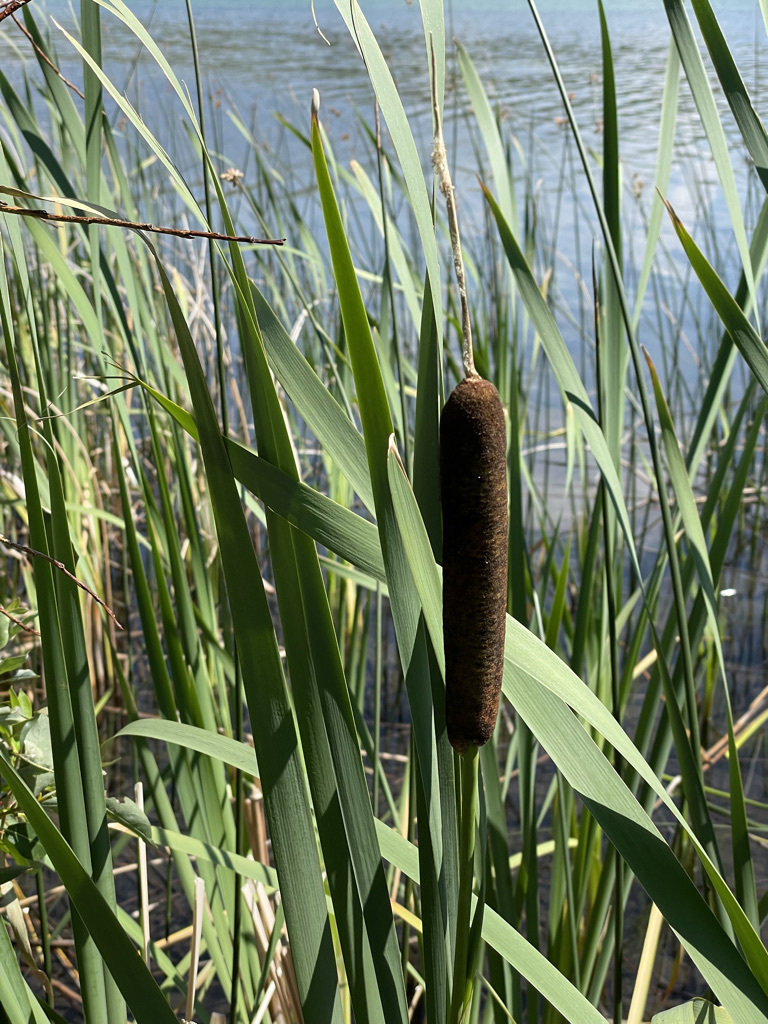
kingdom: Plantae
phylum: Tracheophyta
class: Liliopsida
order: Poales
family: Typhaceae
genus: Typha
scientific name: Typha latifolia
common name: Broadleaf cattail
